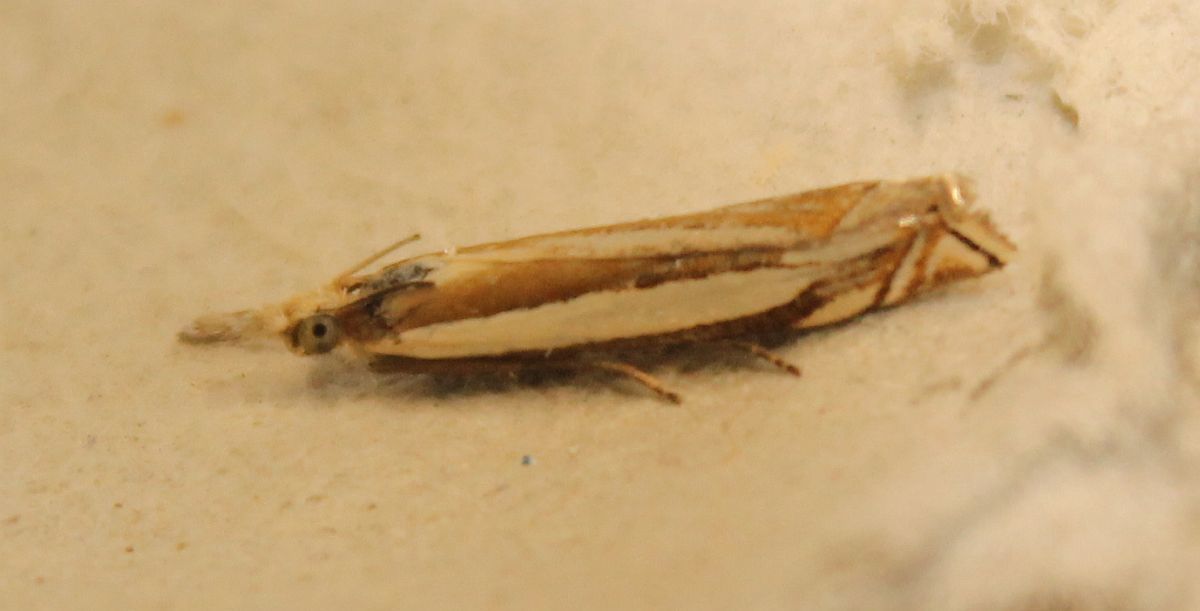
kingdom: Animalia
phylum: Arthropoda
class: Insecta
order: Lepidoptera
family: Crambidae
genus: Crambus
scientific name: Crambus pascuella
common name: Inlaid grass-veneer
